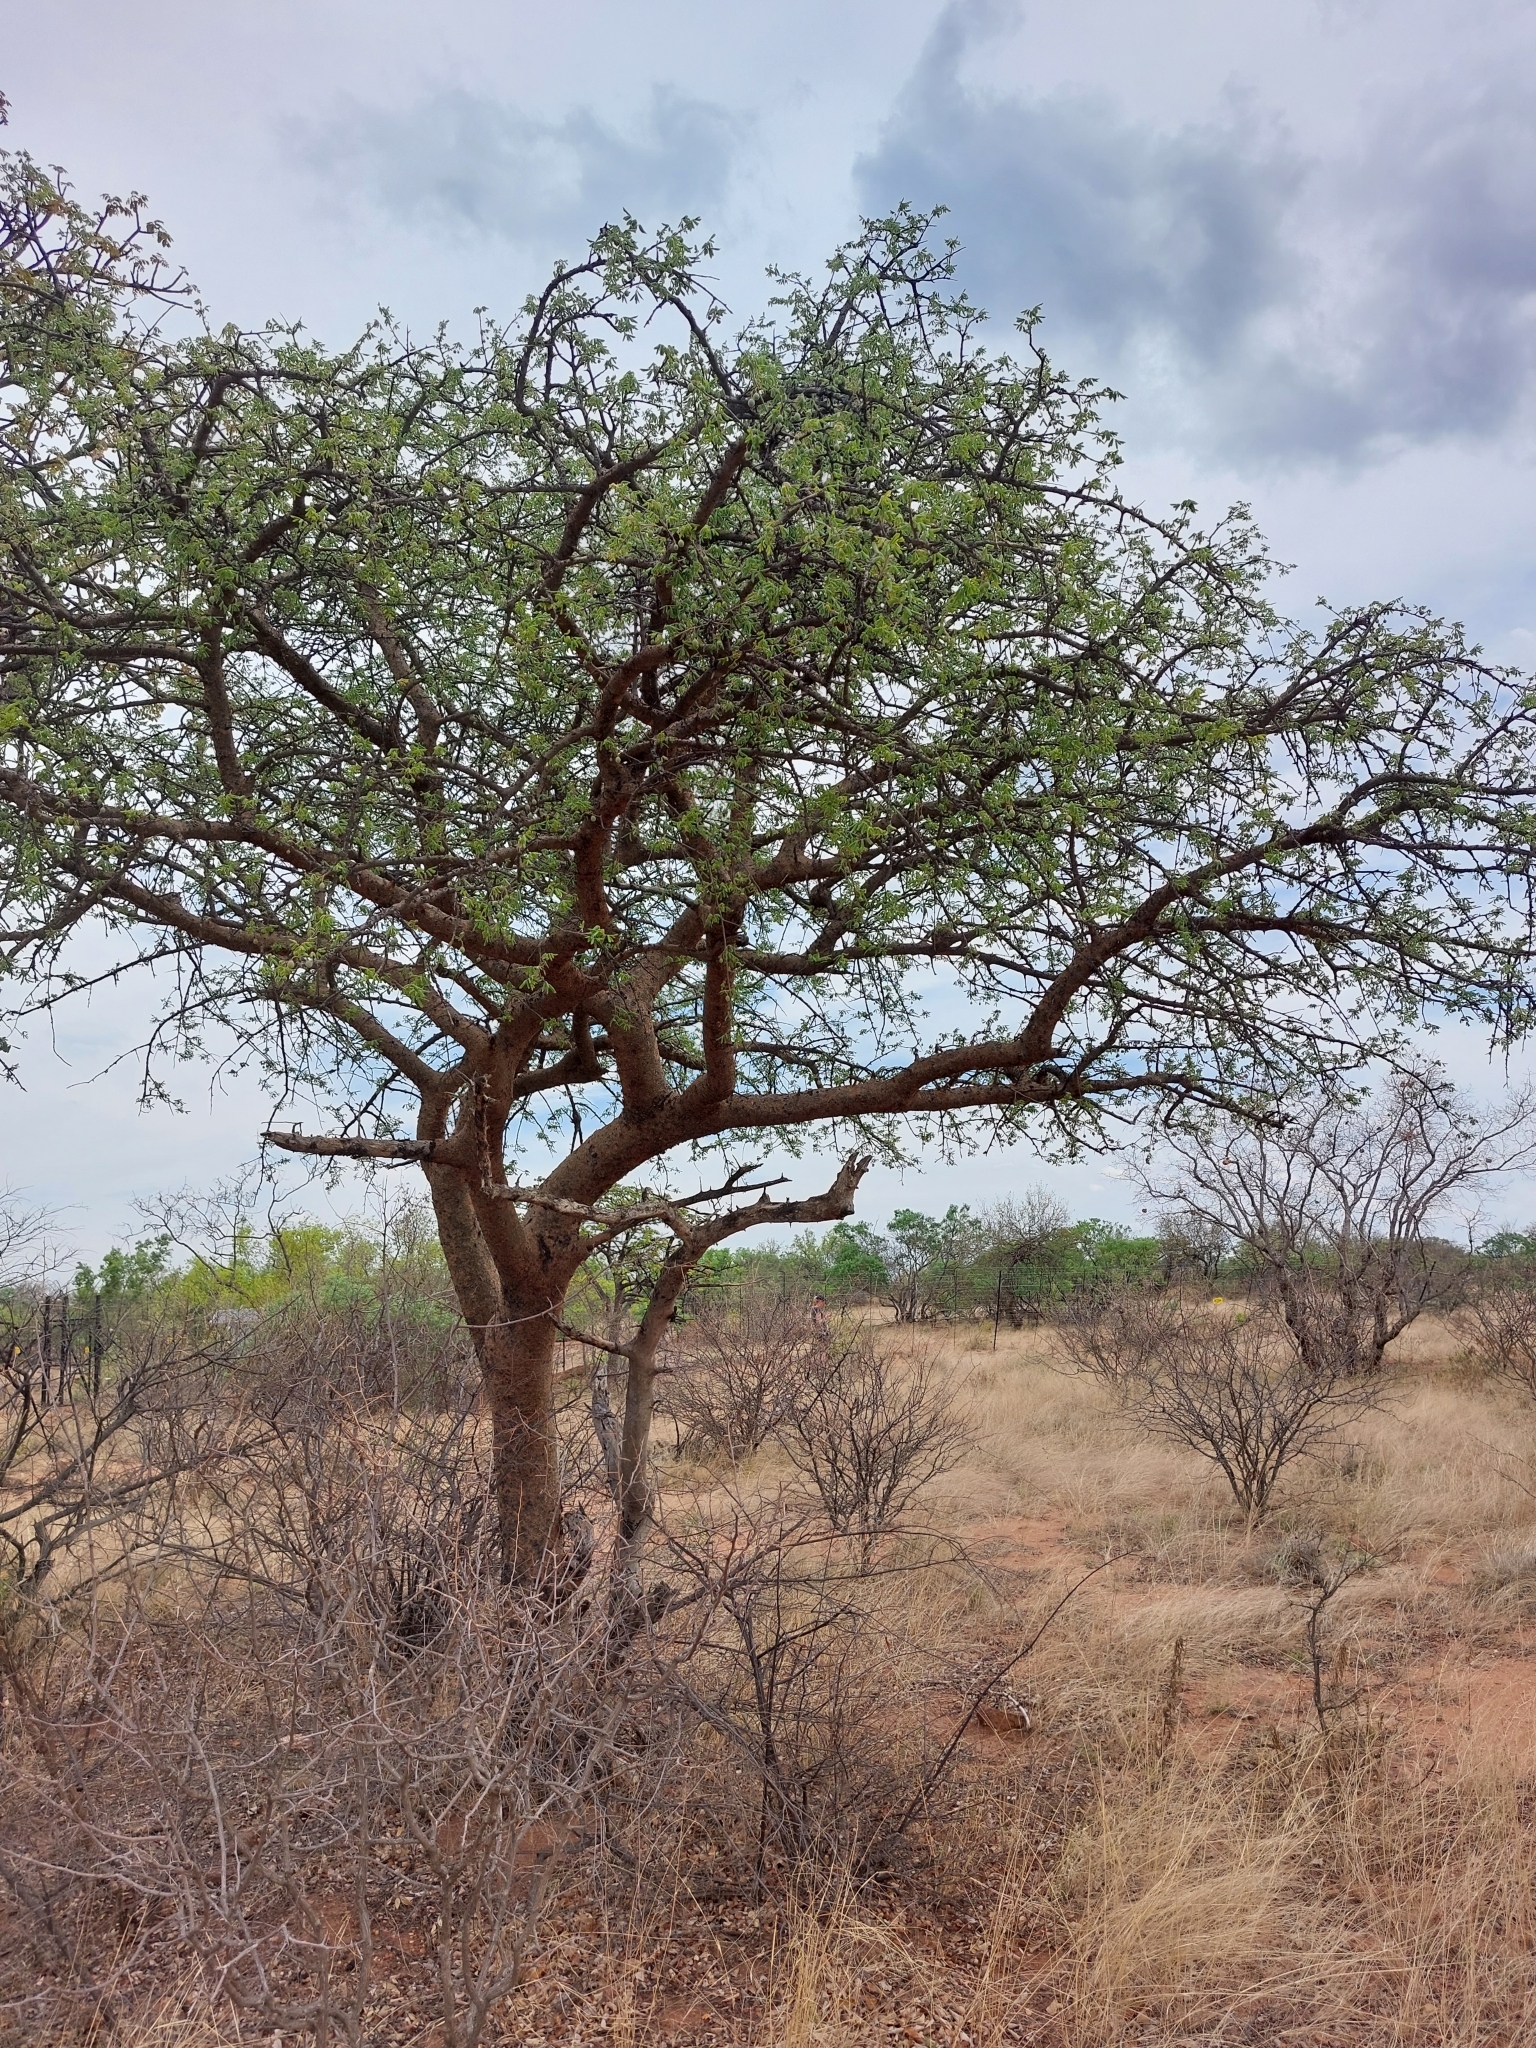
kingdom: Plantae
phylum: Tracheophyta
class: Magnoliopsida
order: Sapindales
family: Burseraceae
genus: Commiphora
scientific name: Commiphora mollis
